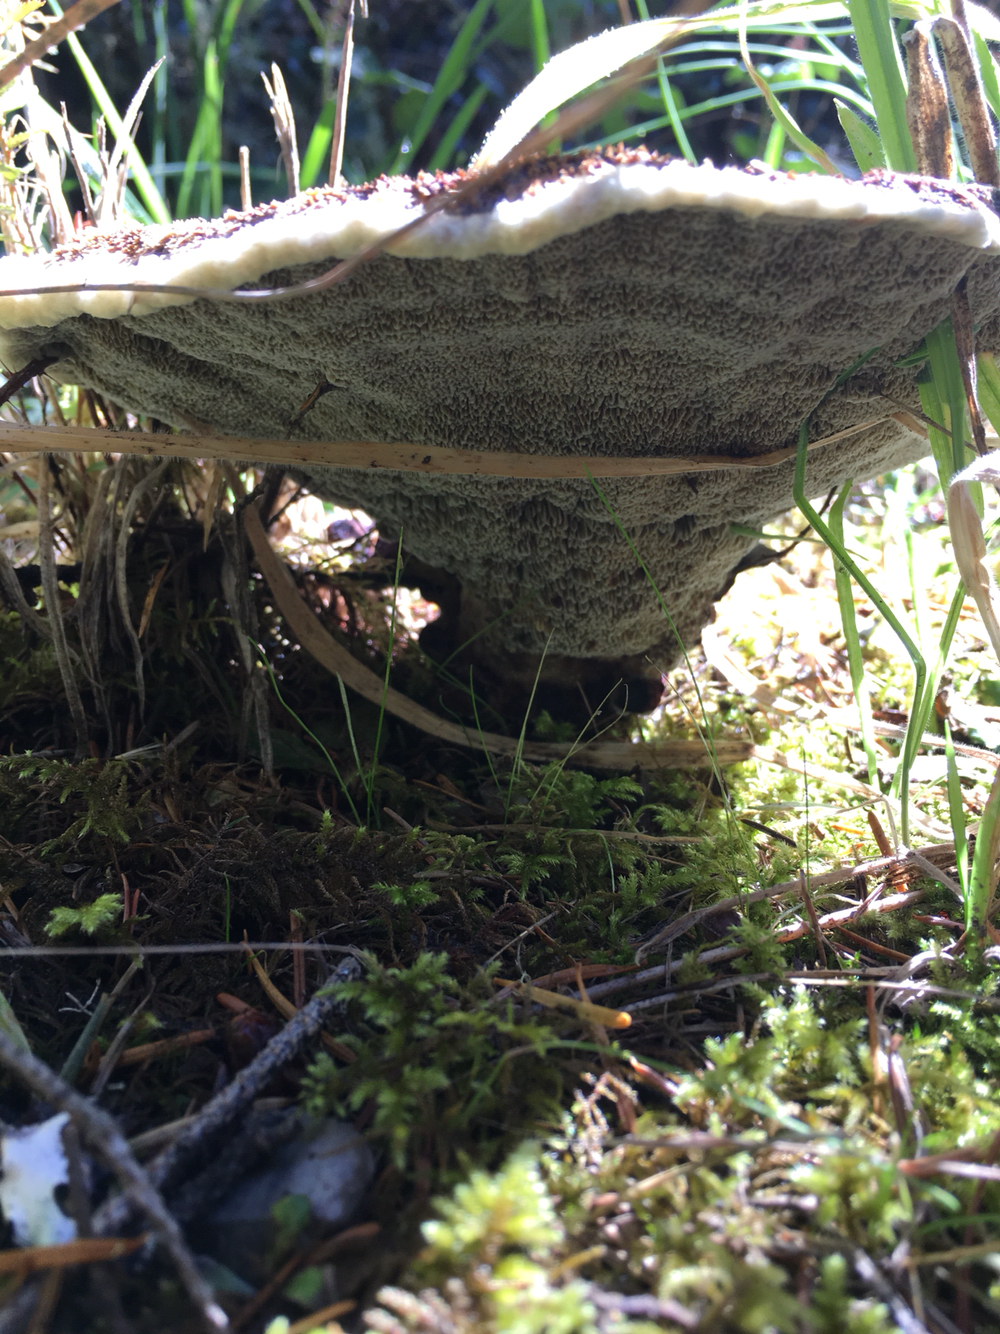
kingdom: Fungi
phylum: Basidiomycota
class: Agaricomycetes
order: Polyporales
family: Laetiporaceae
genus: Phaeolus
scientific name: Phaeolus schweinitzii
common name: Dyer's mazegill
